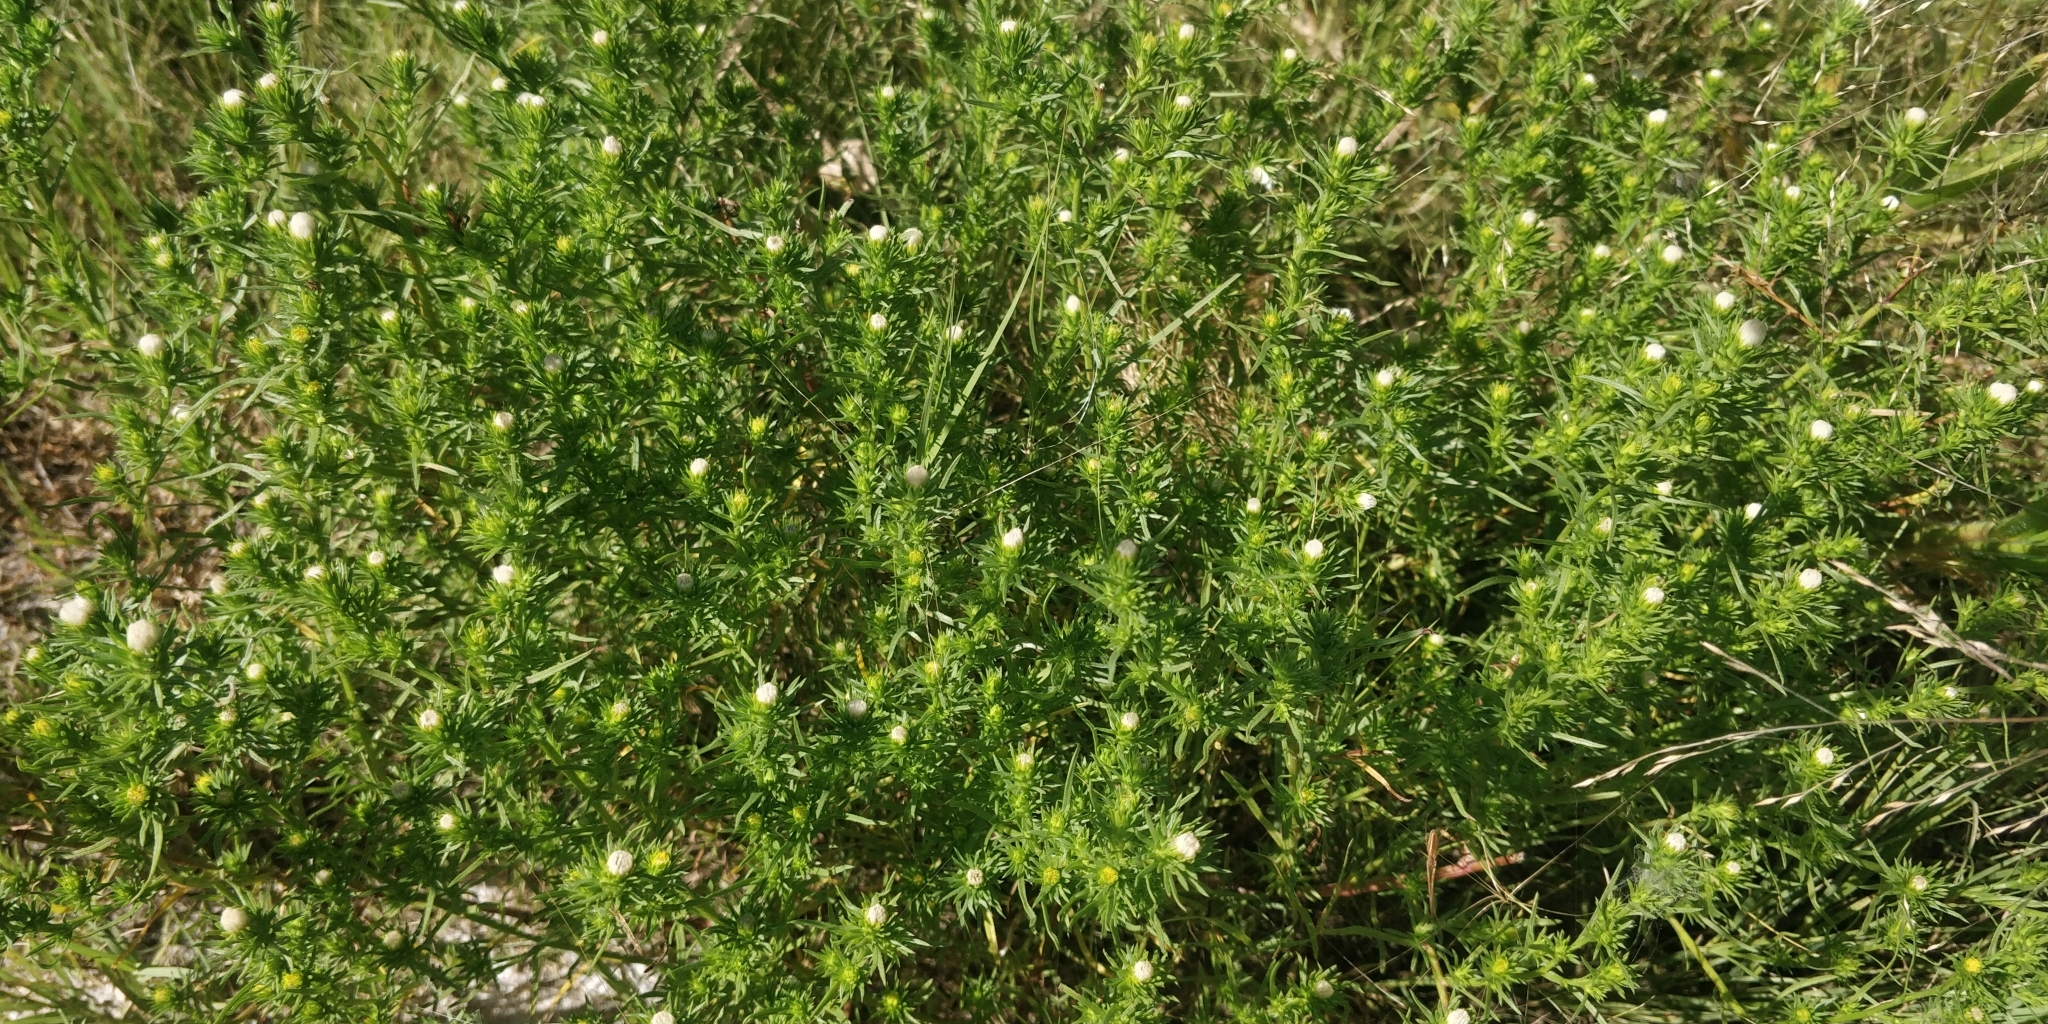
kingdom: Plantae
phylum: Tracheophyta
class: Magnoliopsida
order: Asterales
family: Asteraceae
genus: Symphyotrichum
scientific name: Symphyotrichum ciliatum
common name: Rayless annual aster
